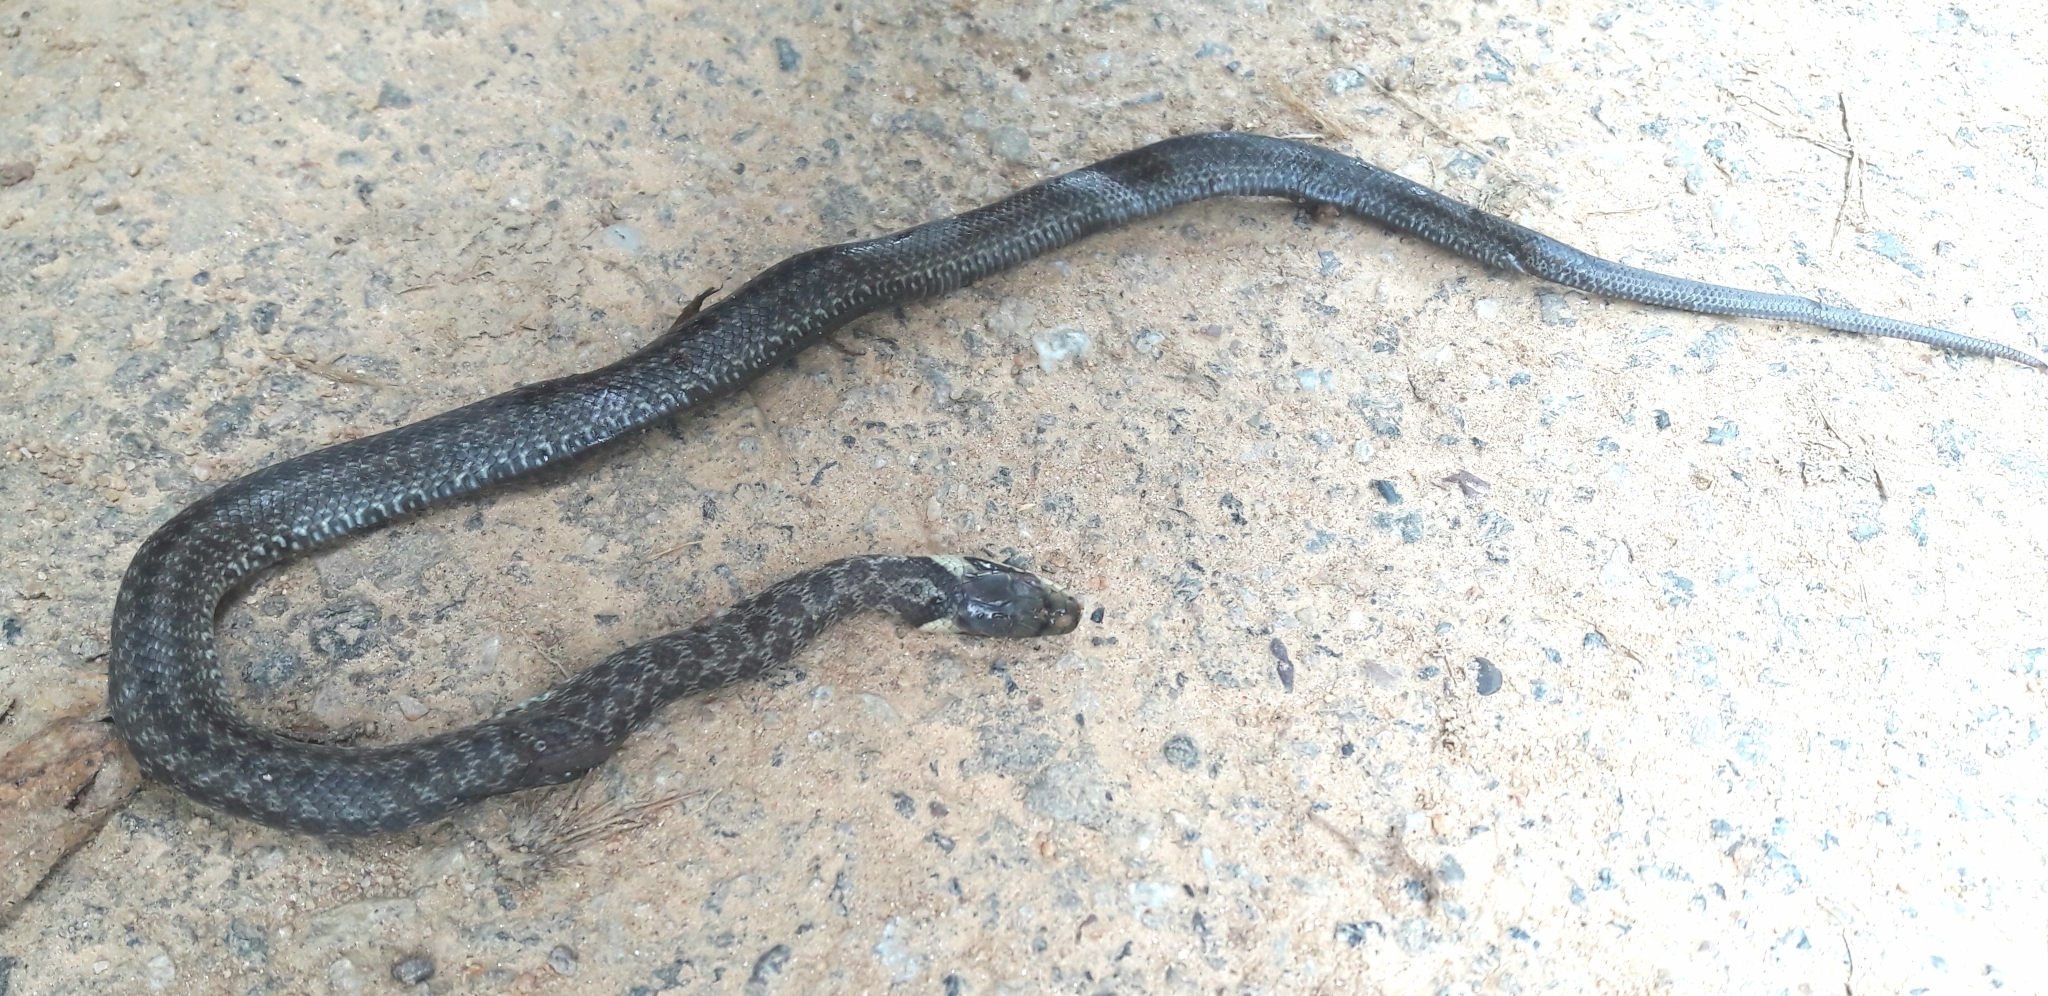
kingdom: Animalia
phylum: Chordata
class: Squamata
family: Colubridae
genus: Zamenis
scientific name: Zamenis longissimus
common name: Aesculapean snake
